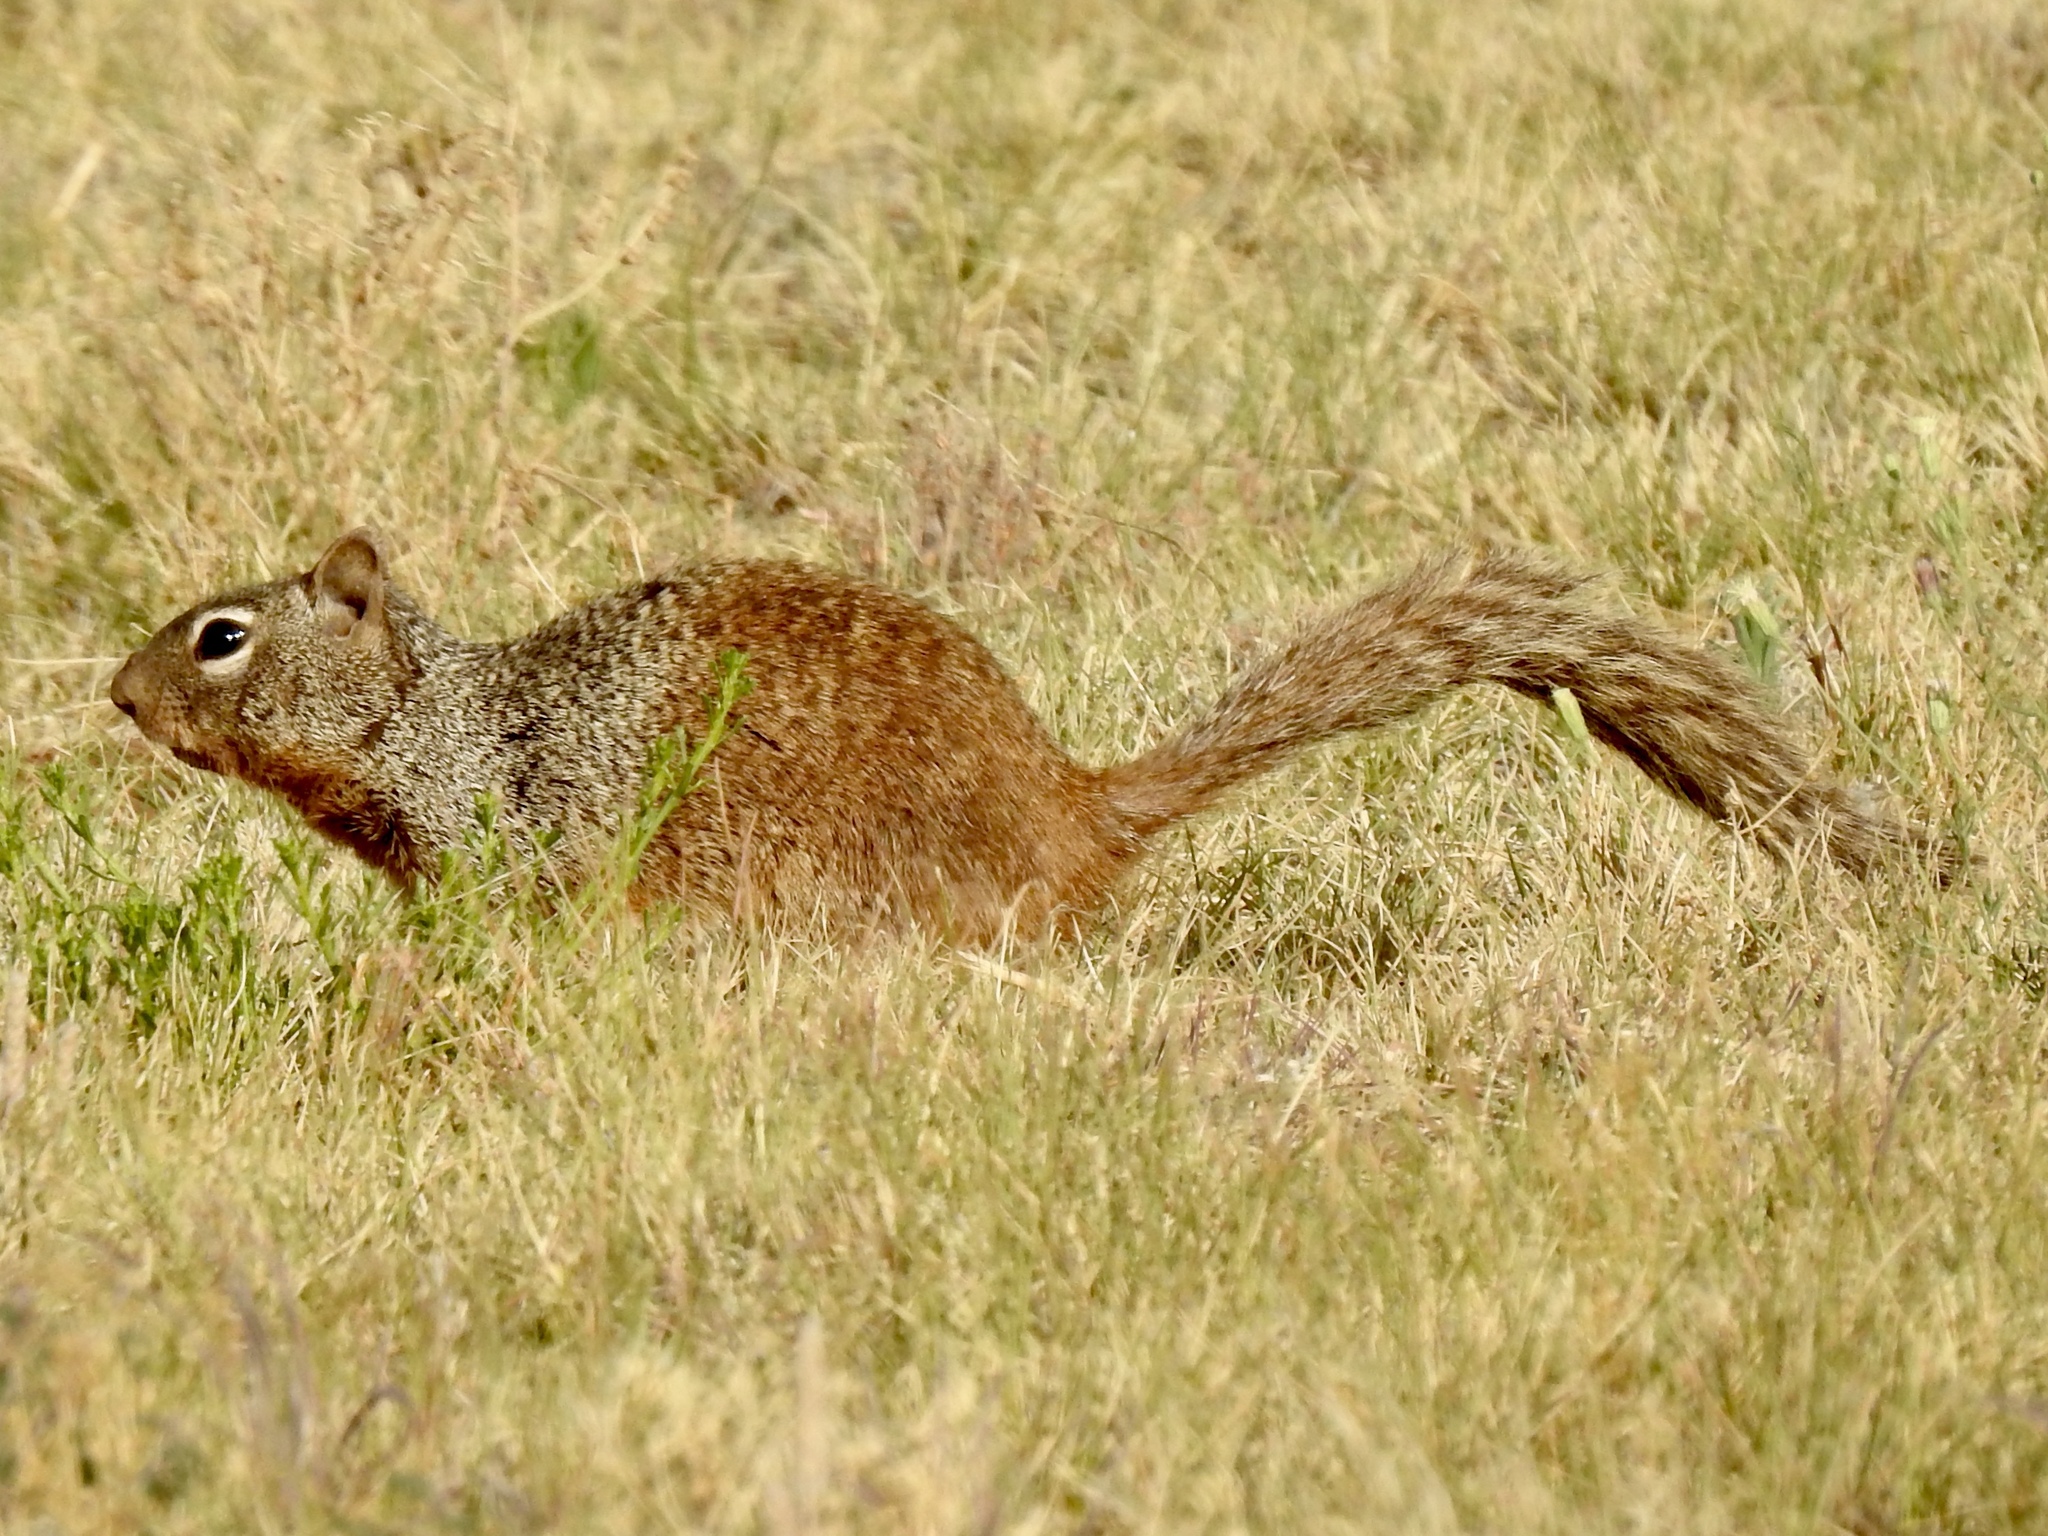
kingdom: Animalia
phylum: Chordata
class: Mammalia
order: Rodentia
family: Sciuridae
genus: Otospermophilus
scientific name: Otospermophilus variegatus
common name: Rock squirrel
